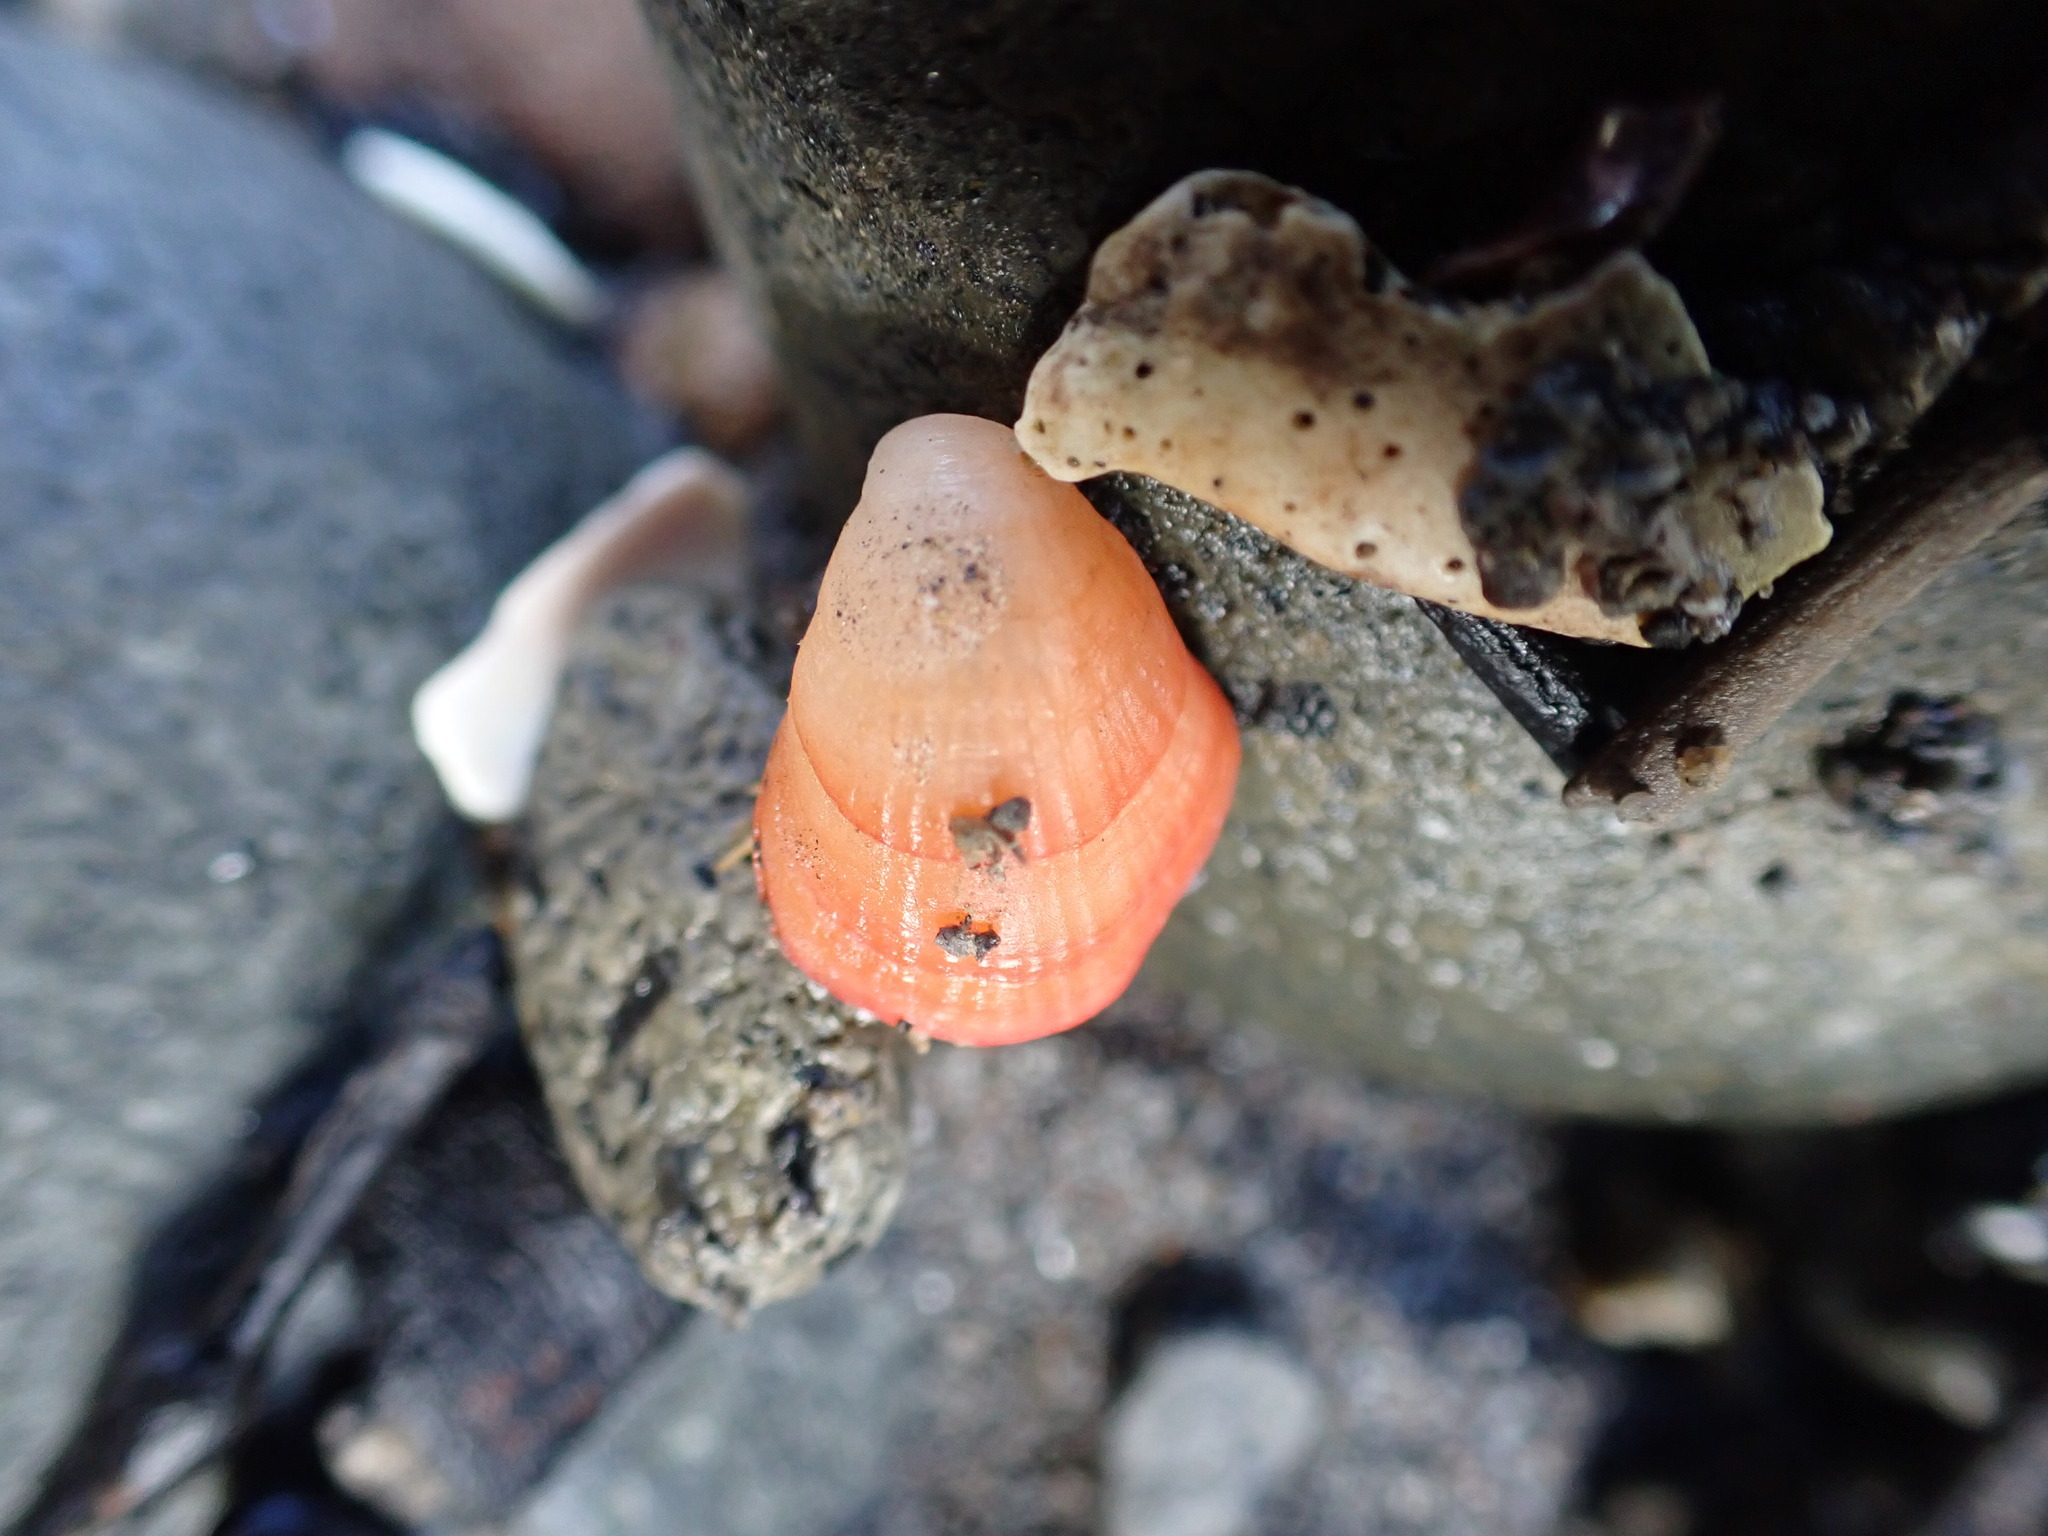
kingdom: Animalia
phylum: Brachiopoda
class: Rhynchonellata
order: Terebratulida
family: Terebratellidae
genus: Magasella
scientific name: Magasella sanguinea
